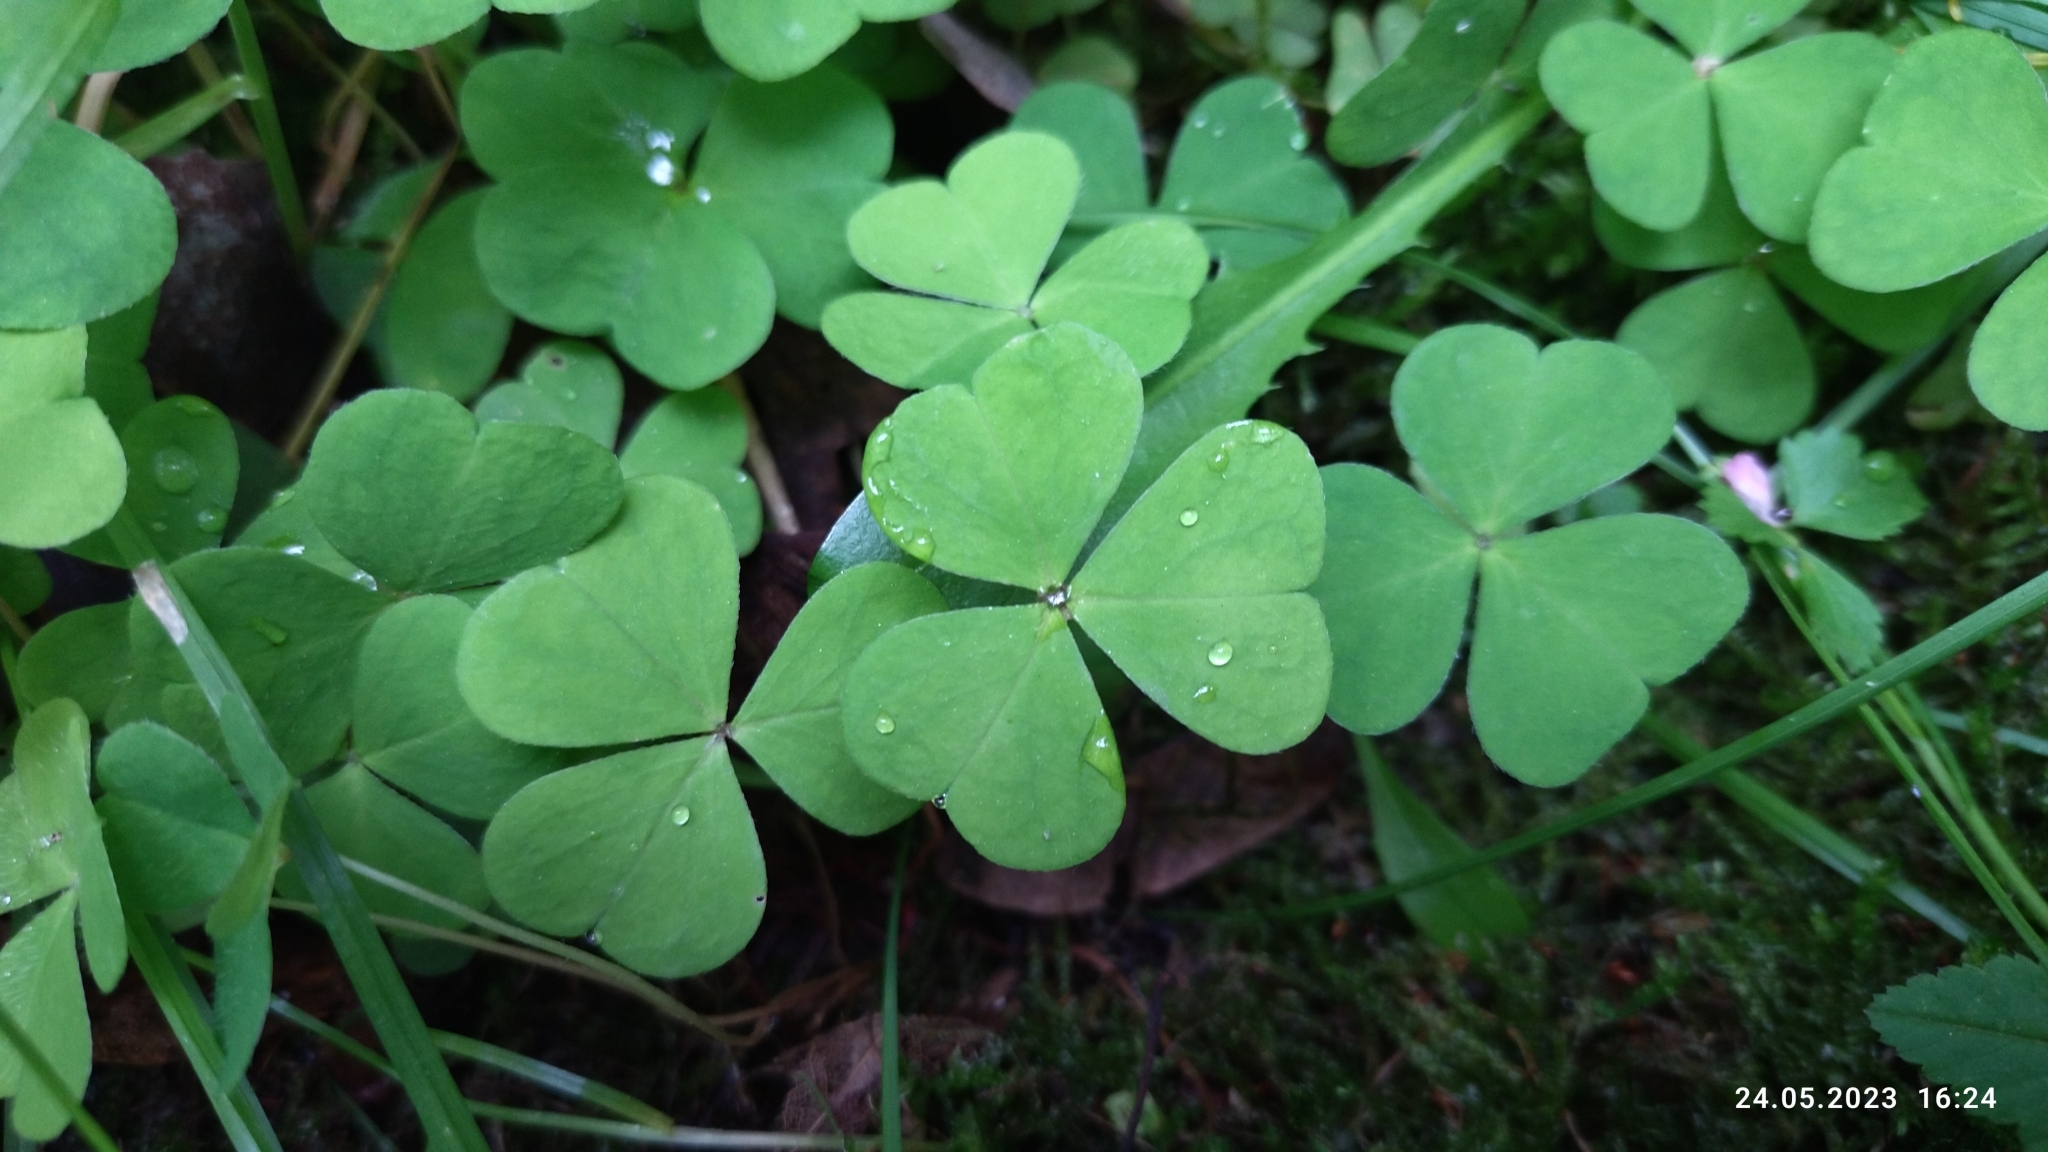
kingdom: Plantae
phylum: Tracheophyta
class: Magnoliopsida
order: Oxalidales
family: Oxalidaceae
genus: Oxalis
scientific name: Oxalis acetosella
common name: Wood-sorrel
